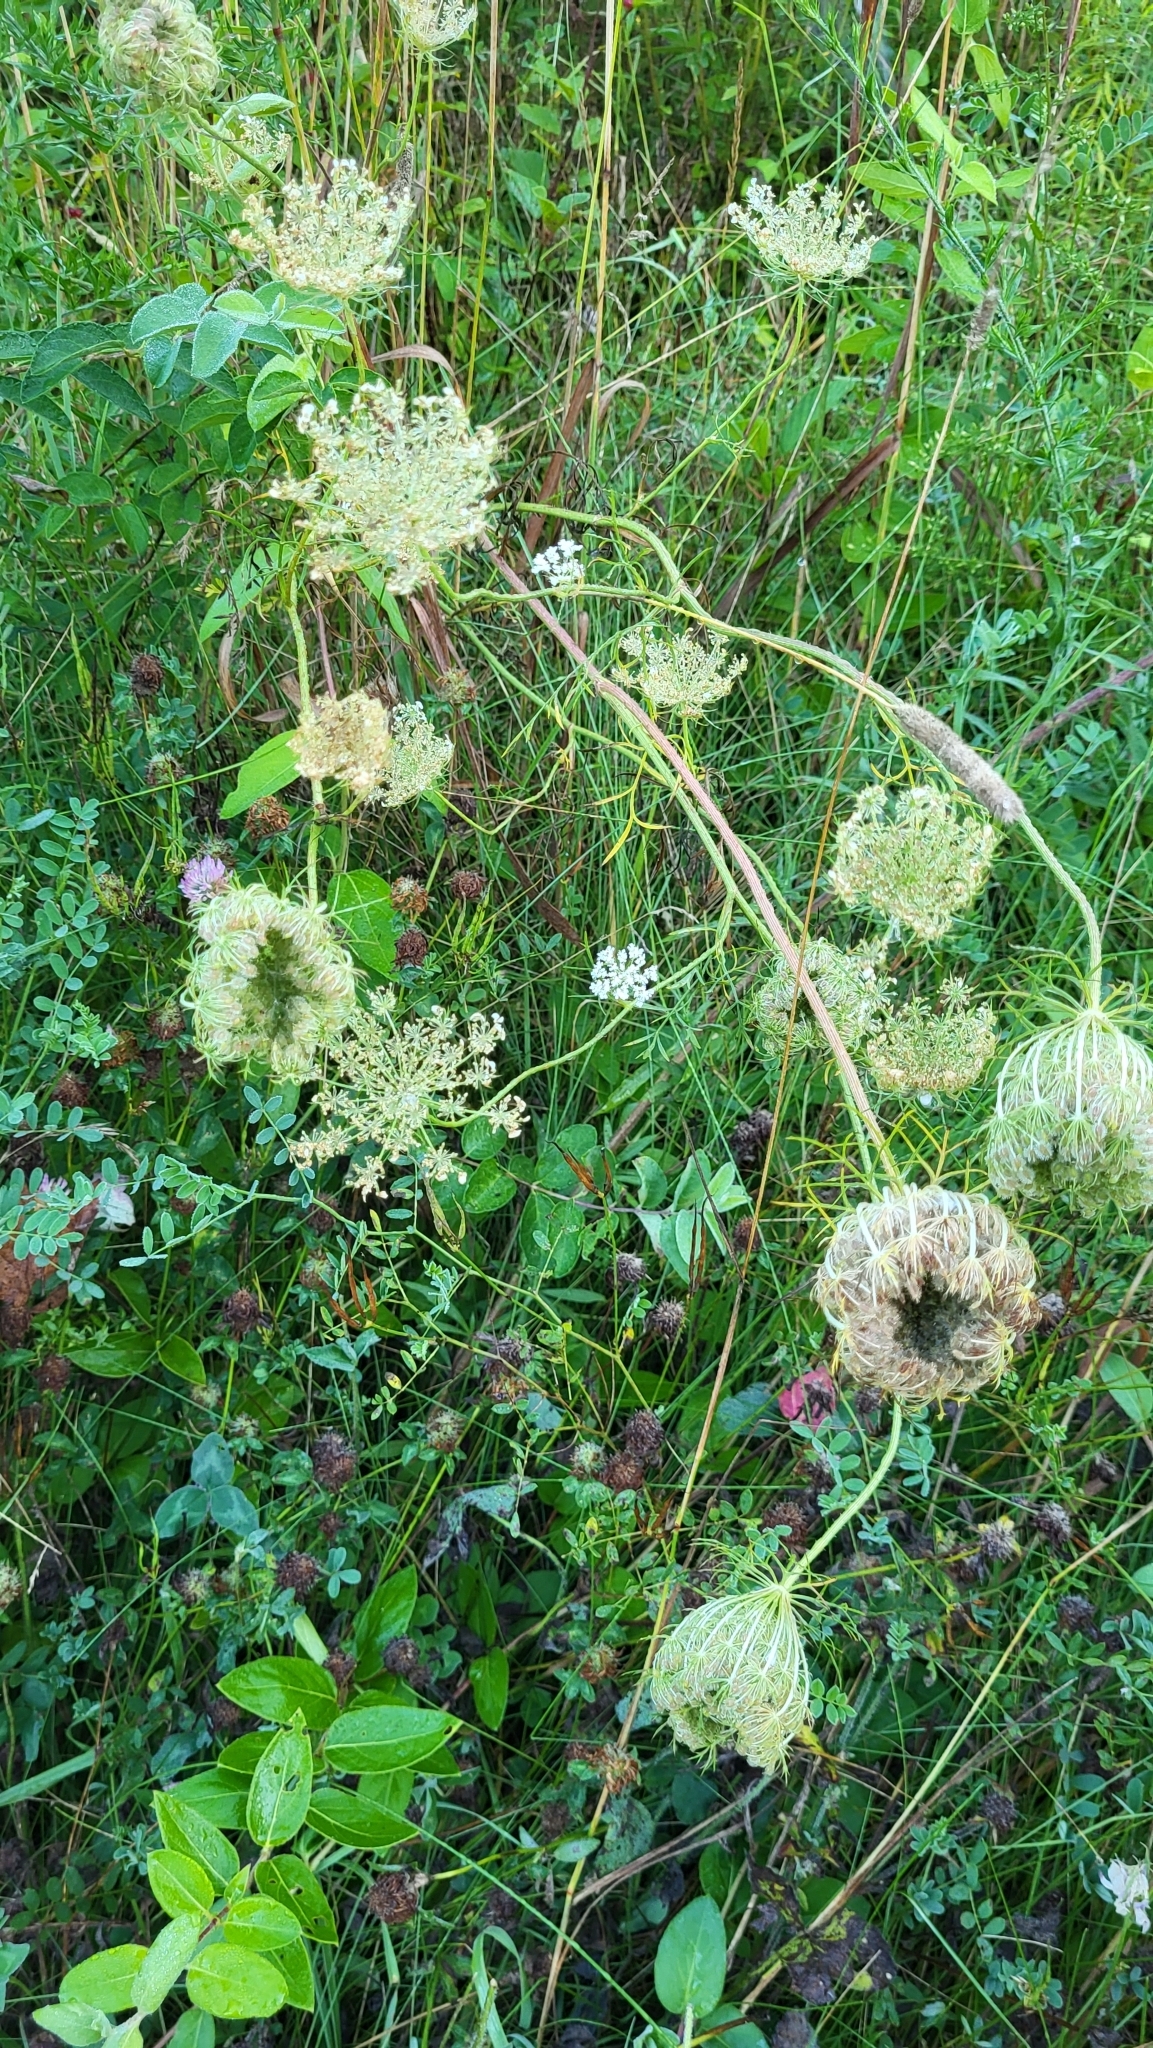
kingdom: Plantae
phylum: Tracheophyta
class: Magnoliopsida
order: Apiales
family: Apiaceae
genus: Daucus
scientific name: Daucus carota
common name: Wild carrot
